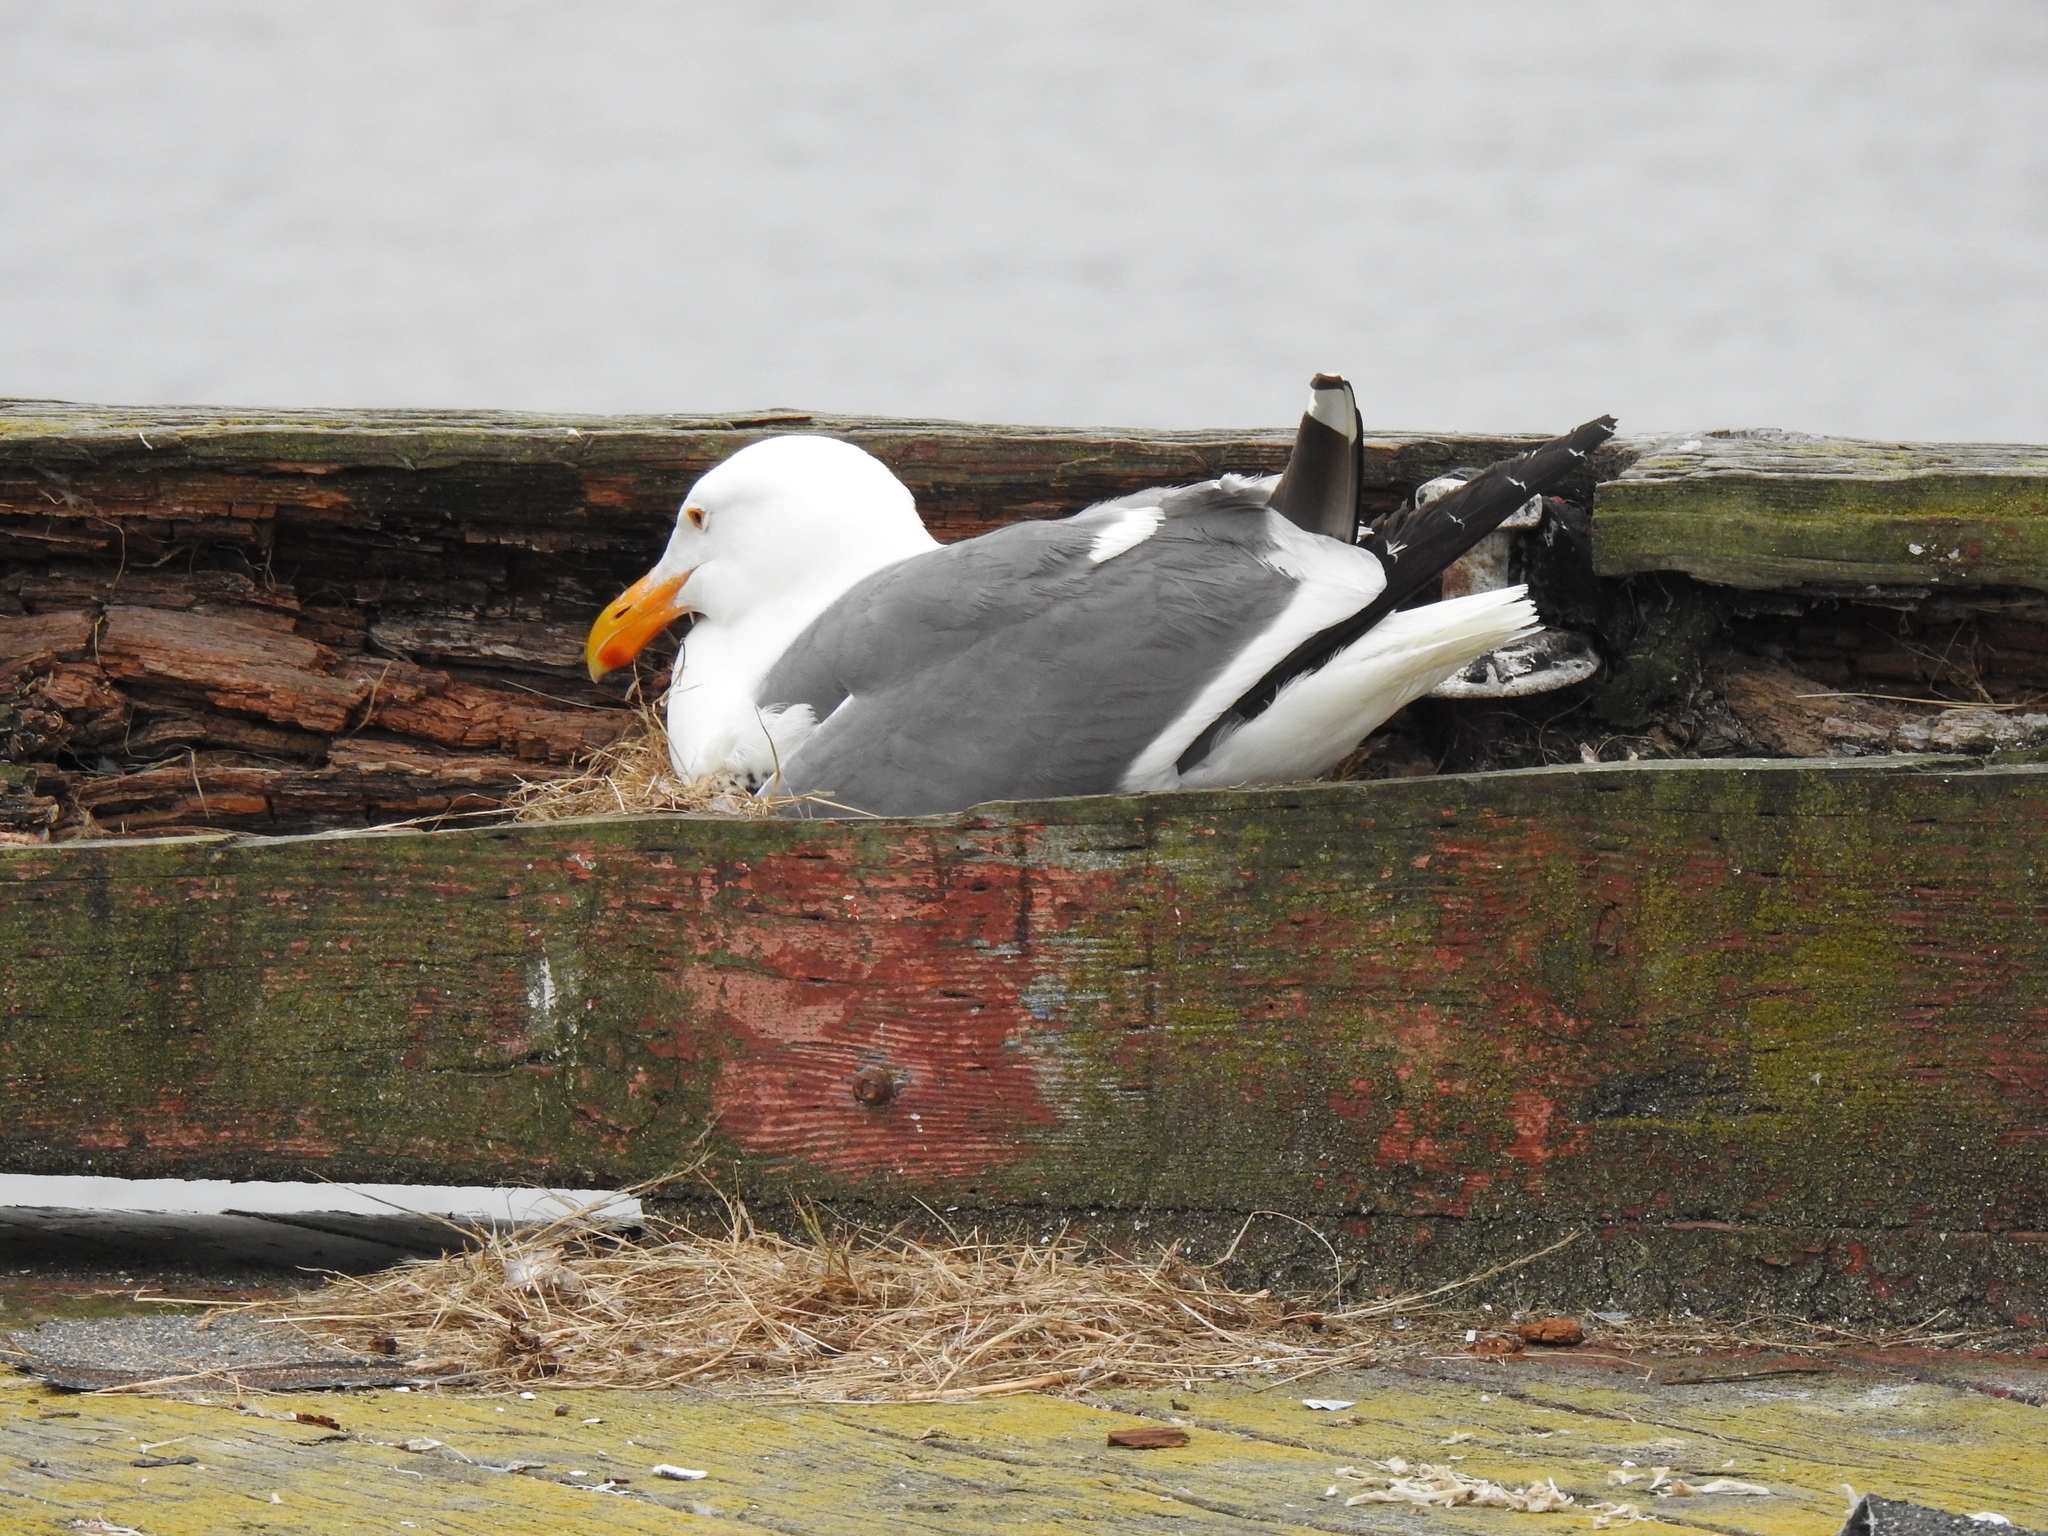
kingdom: Animalia
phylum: Chordata
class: Aves
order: Charadriiformes
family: Laridae
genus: Larus
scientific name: Larus occidentalis
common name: Western gull
